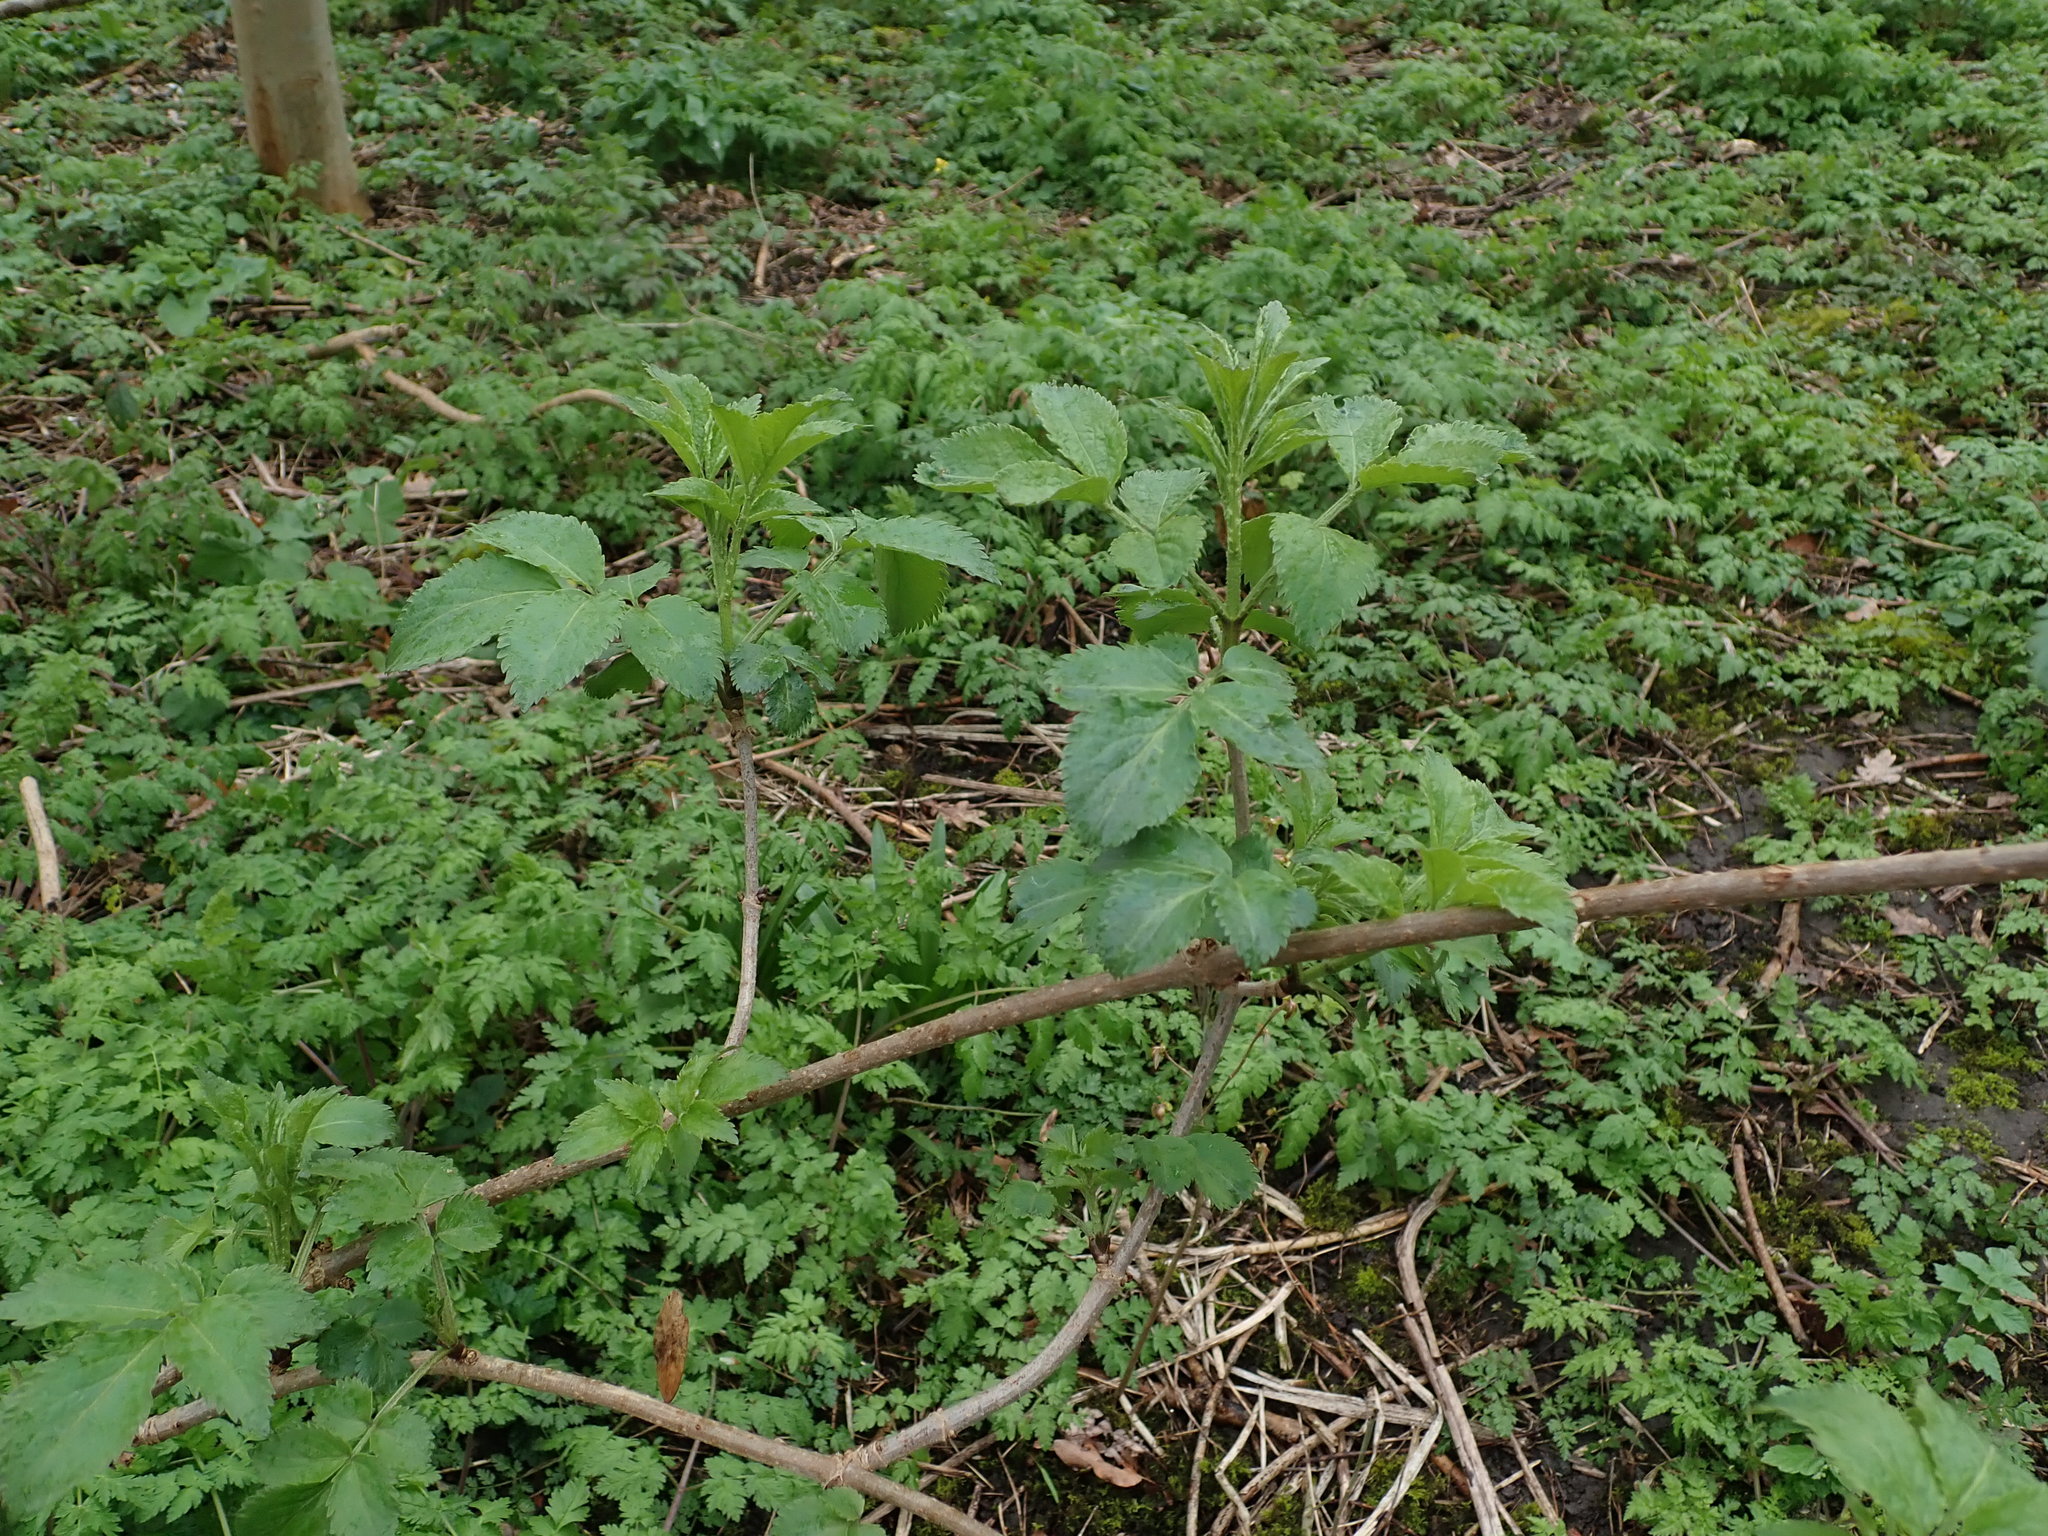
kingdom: Plantae
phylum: Tracheophyta
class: Magnoliopsida
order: Dipsacales
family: Viburnaceae
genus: Sambucus
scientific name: Sambucus nigra
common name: Elder
